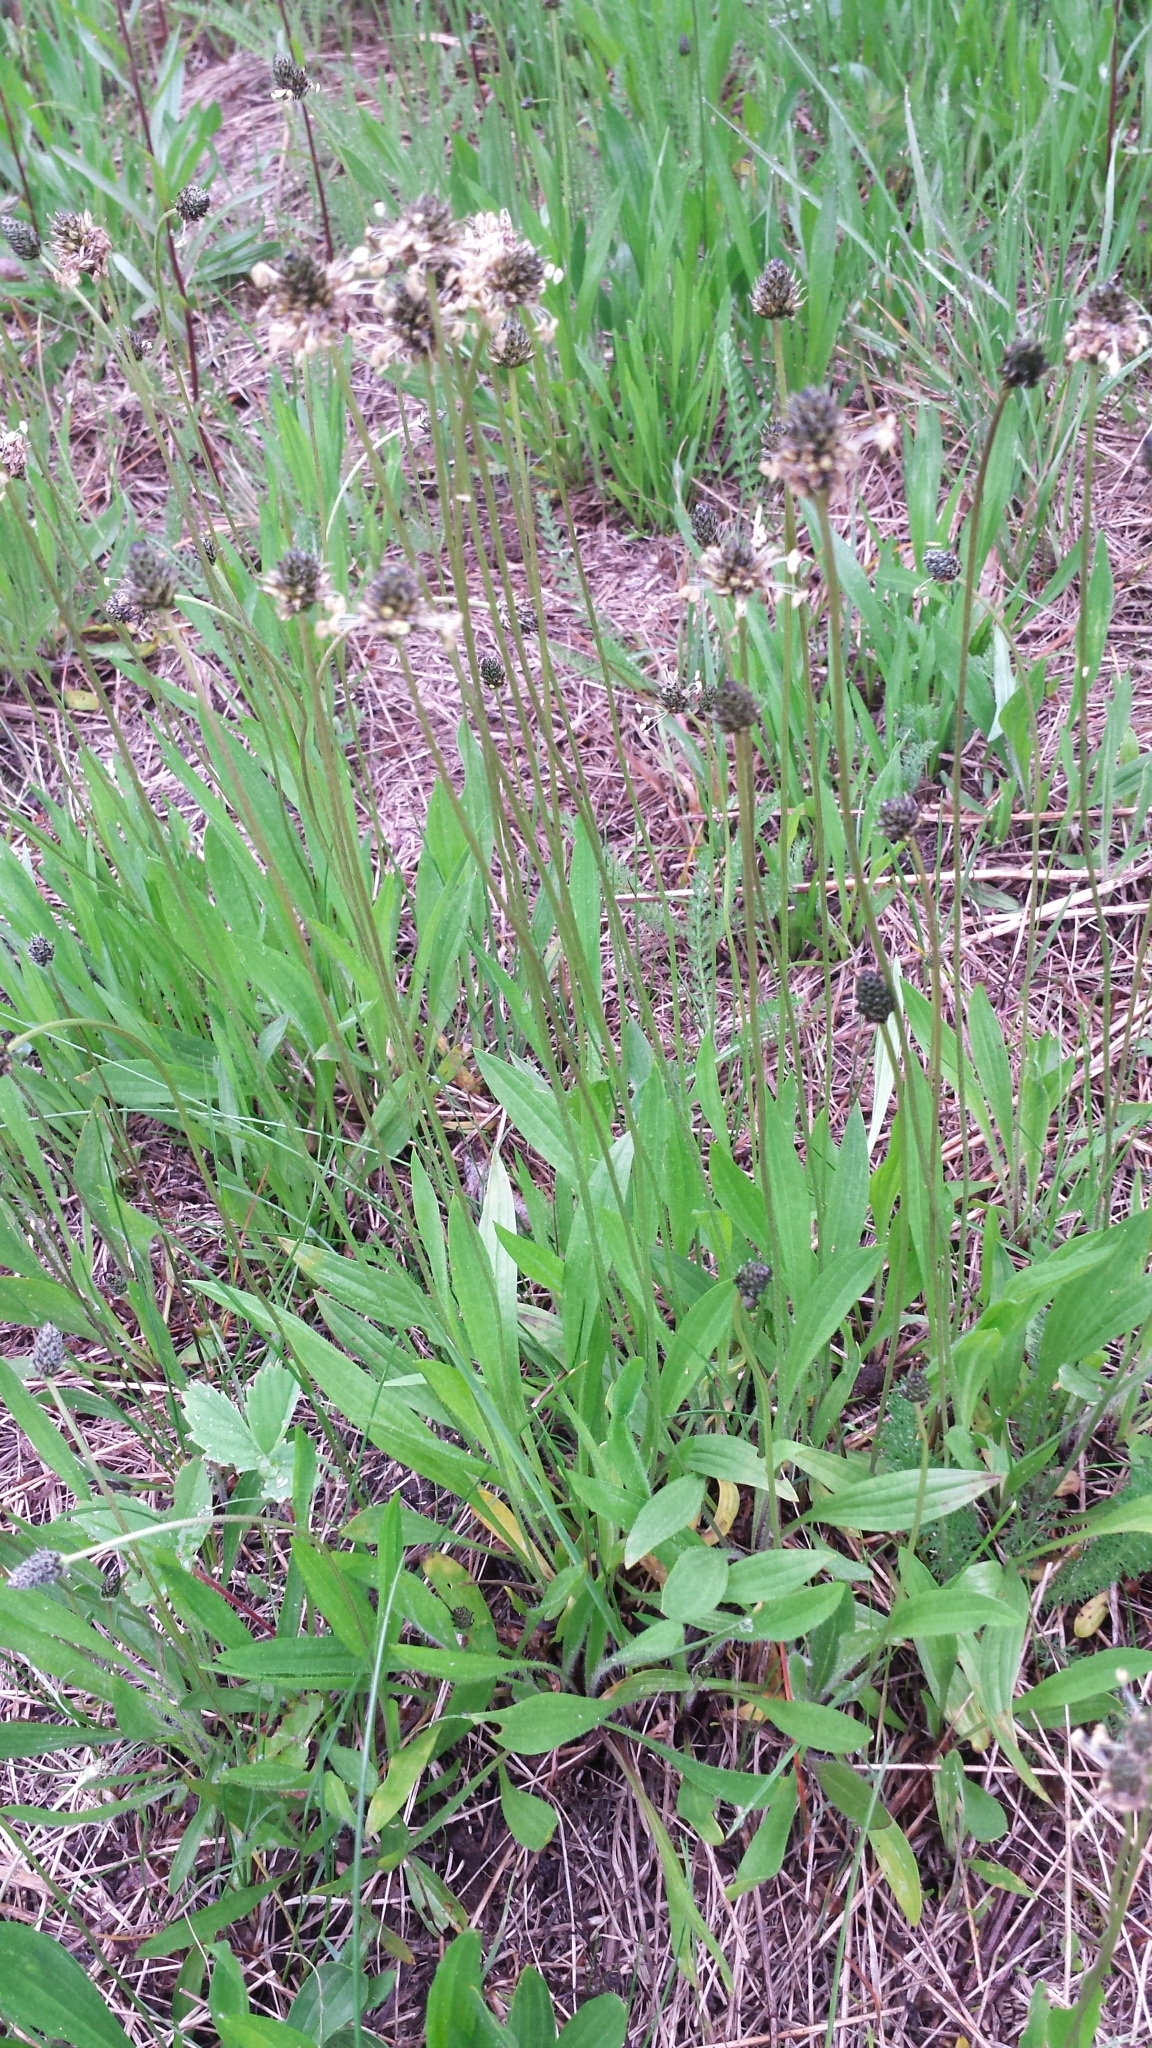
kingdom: Plantae
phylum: Tracheophyta
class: Magnoliopsida
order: Lamiales
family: Plantaginaceae
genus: Plantago
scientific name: Plantago lanceolata
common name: Ribwort plantain
